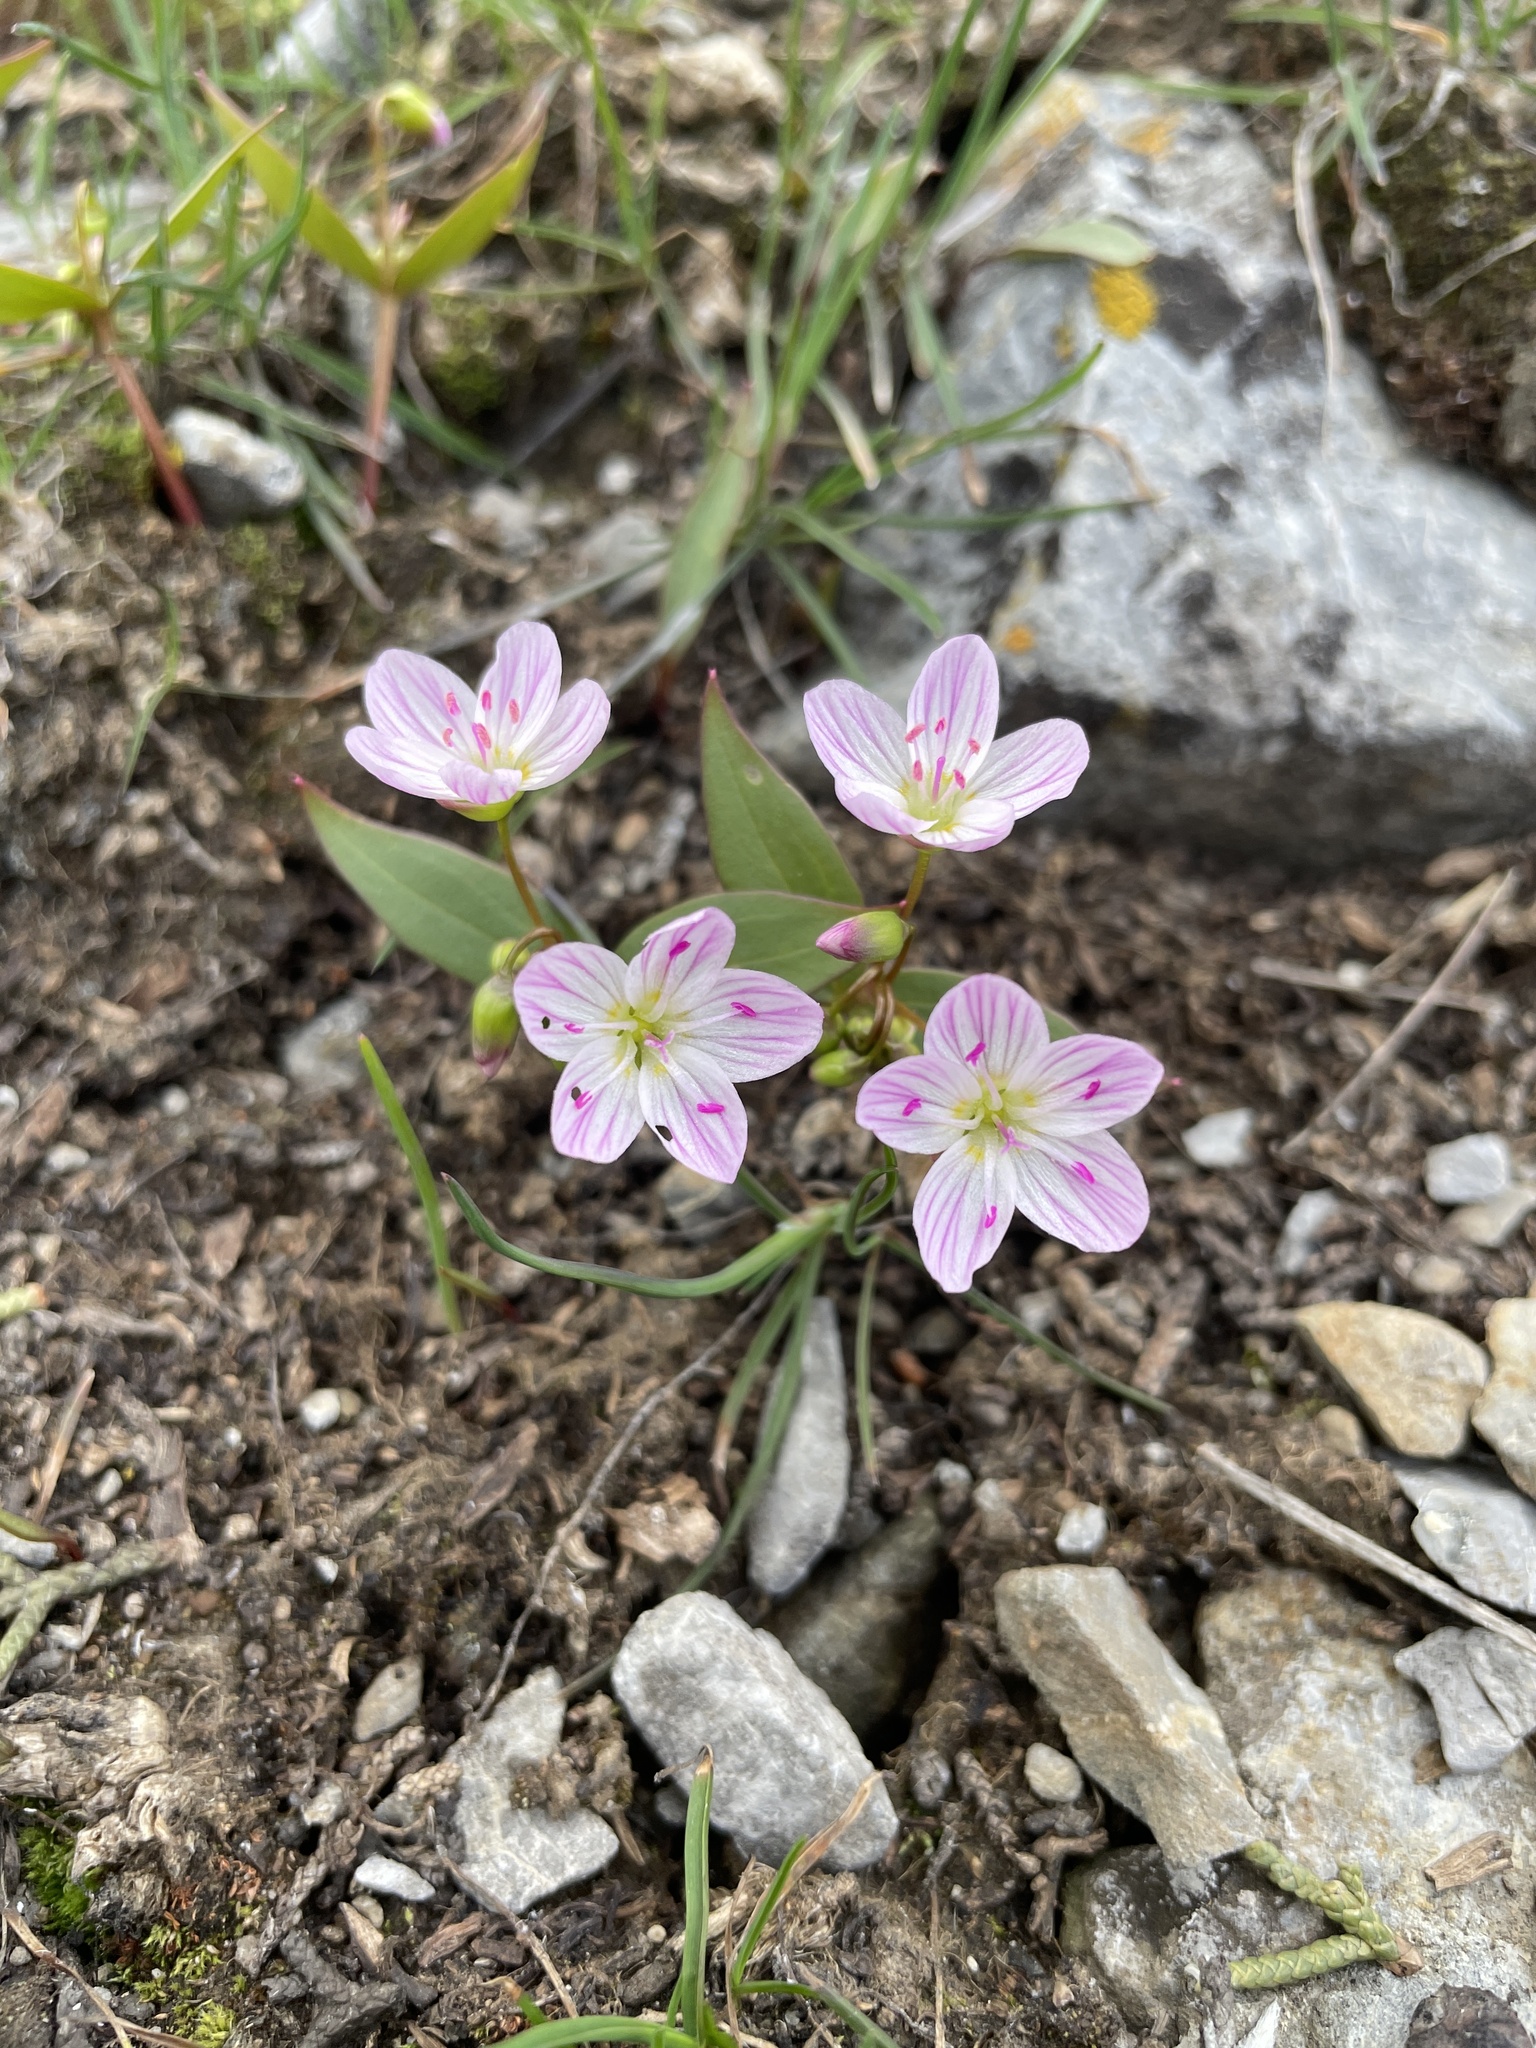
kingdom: Plantae
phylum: Tracheophyta
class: Magnoliopsida
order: Caryophyllales
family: Montiaceae
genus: Claytonia
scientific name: Claytonia lanceolata
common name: Western spring-beauty
